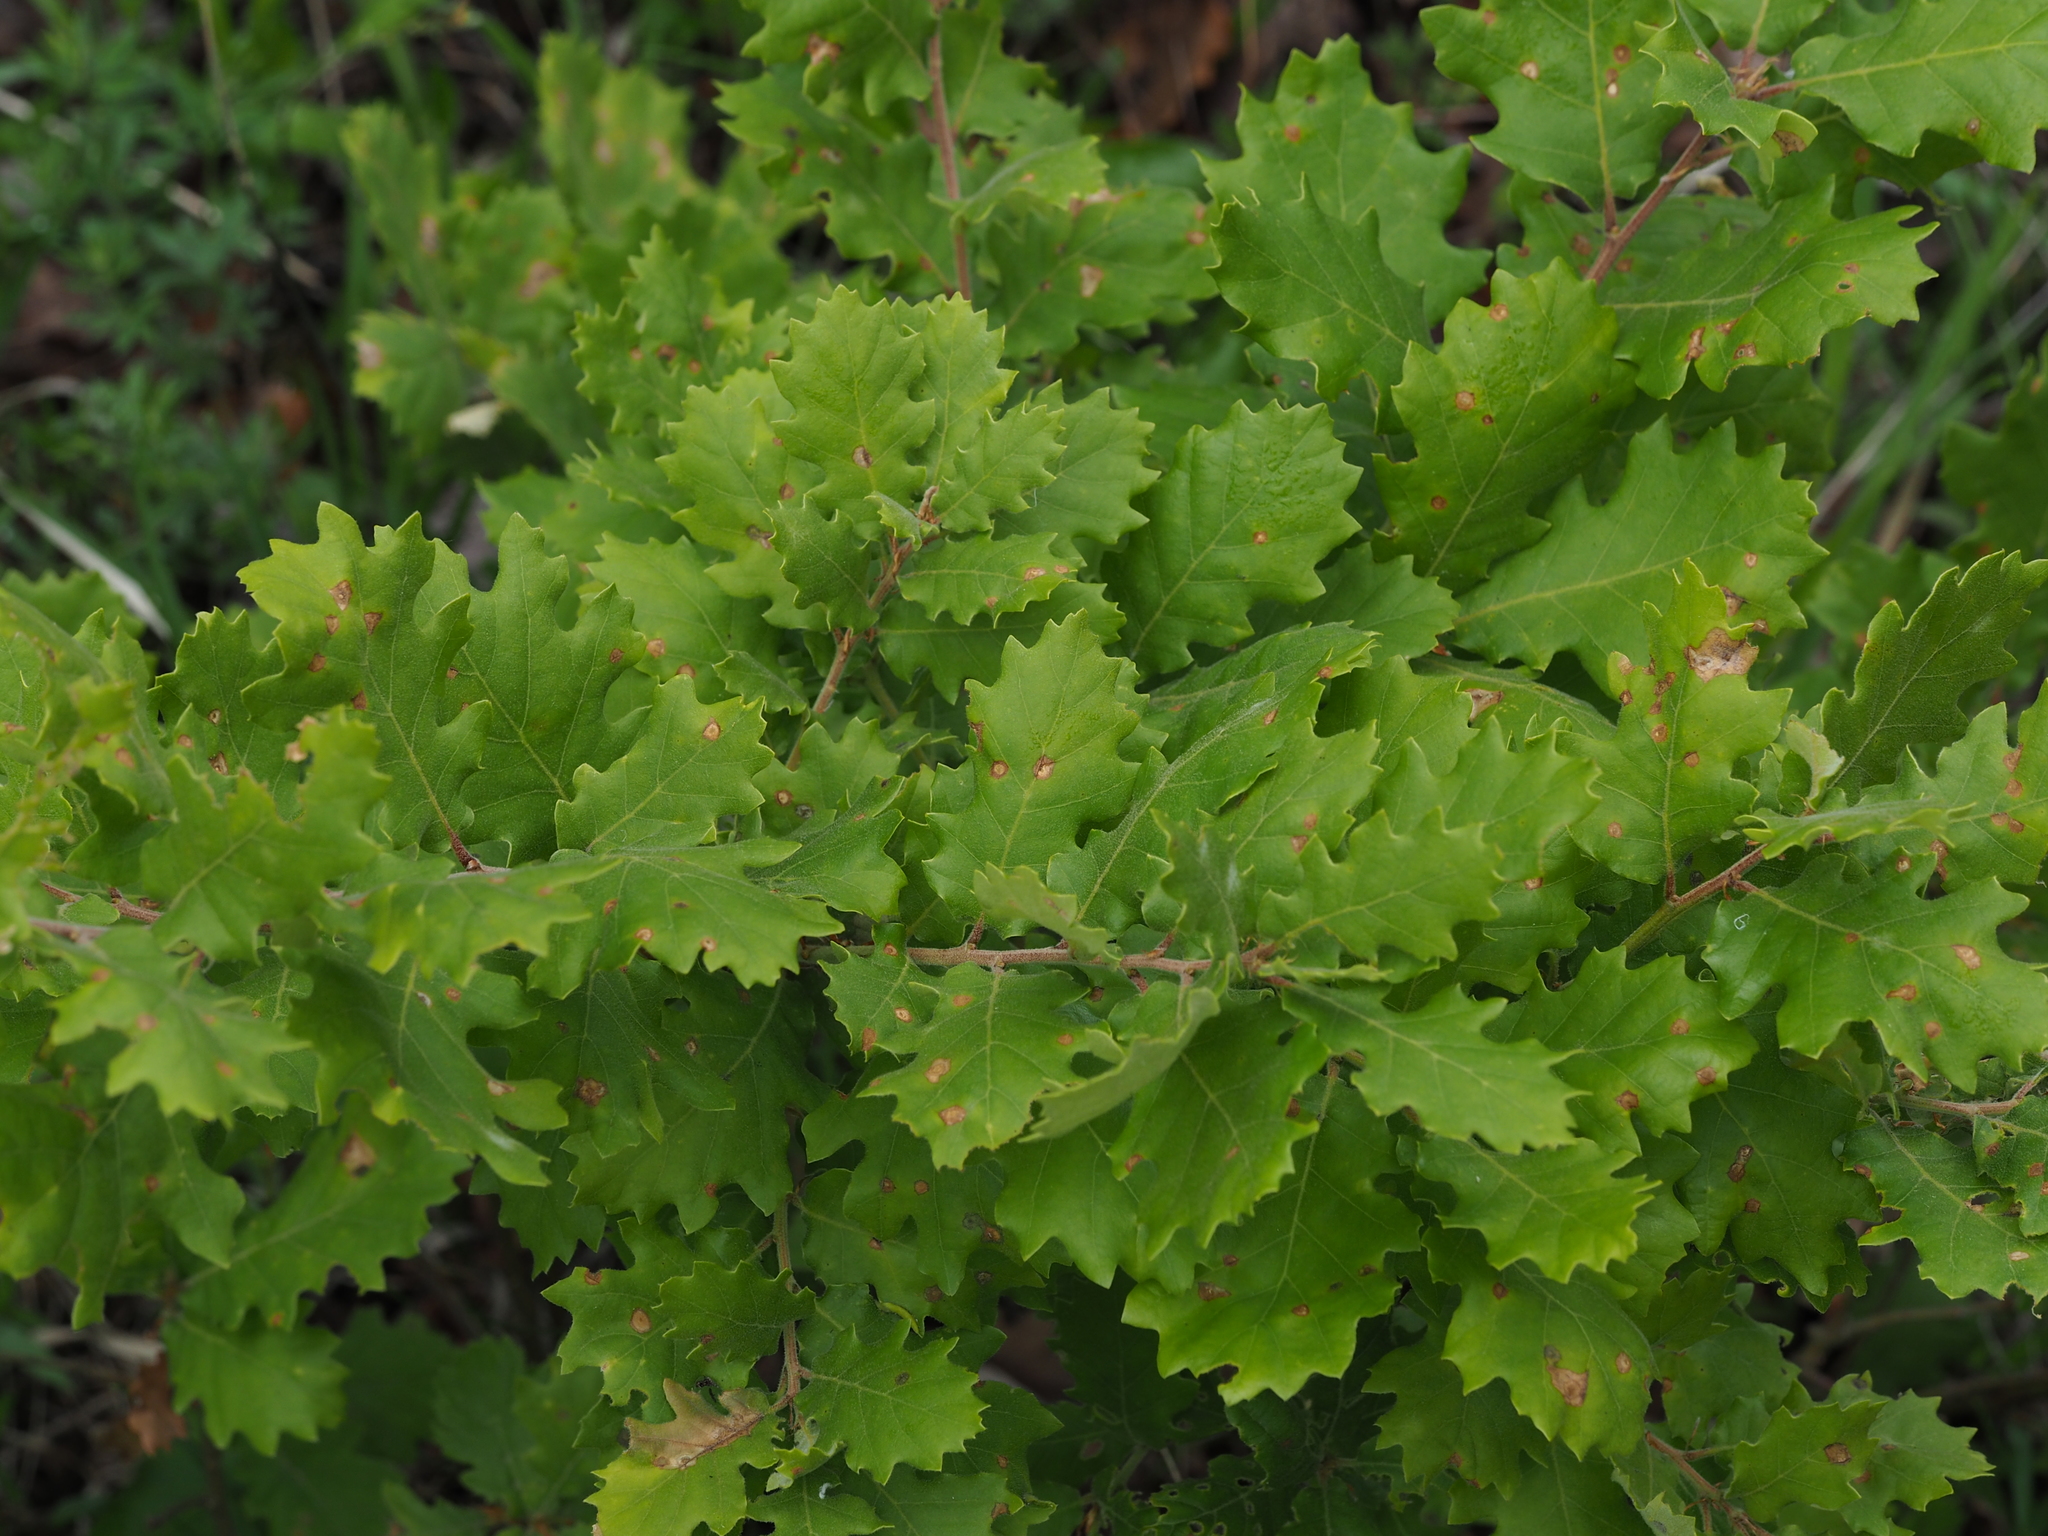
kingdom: Plantae
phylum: Tracheophyta
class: Magnoliopsida
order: Fagales
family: Fagaceae
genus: Quercus
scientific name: Quercus cerris
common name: Turkey oak
